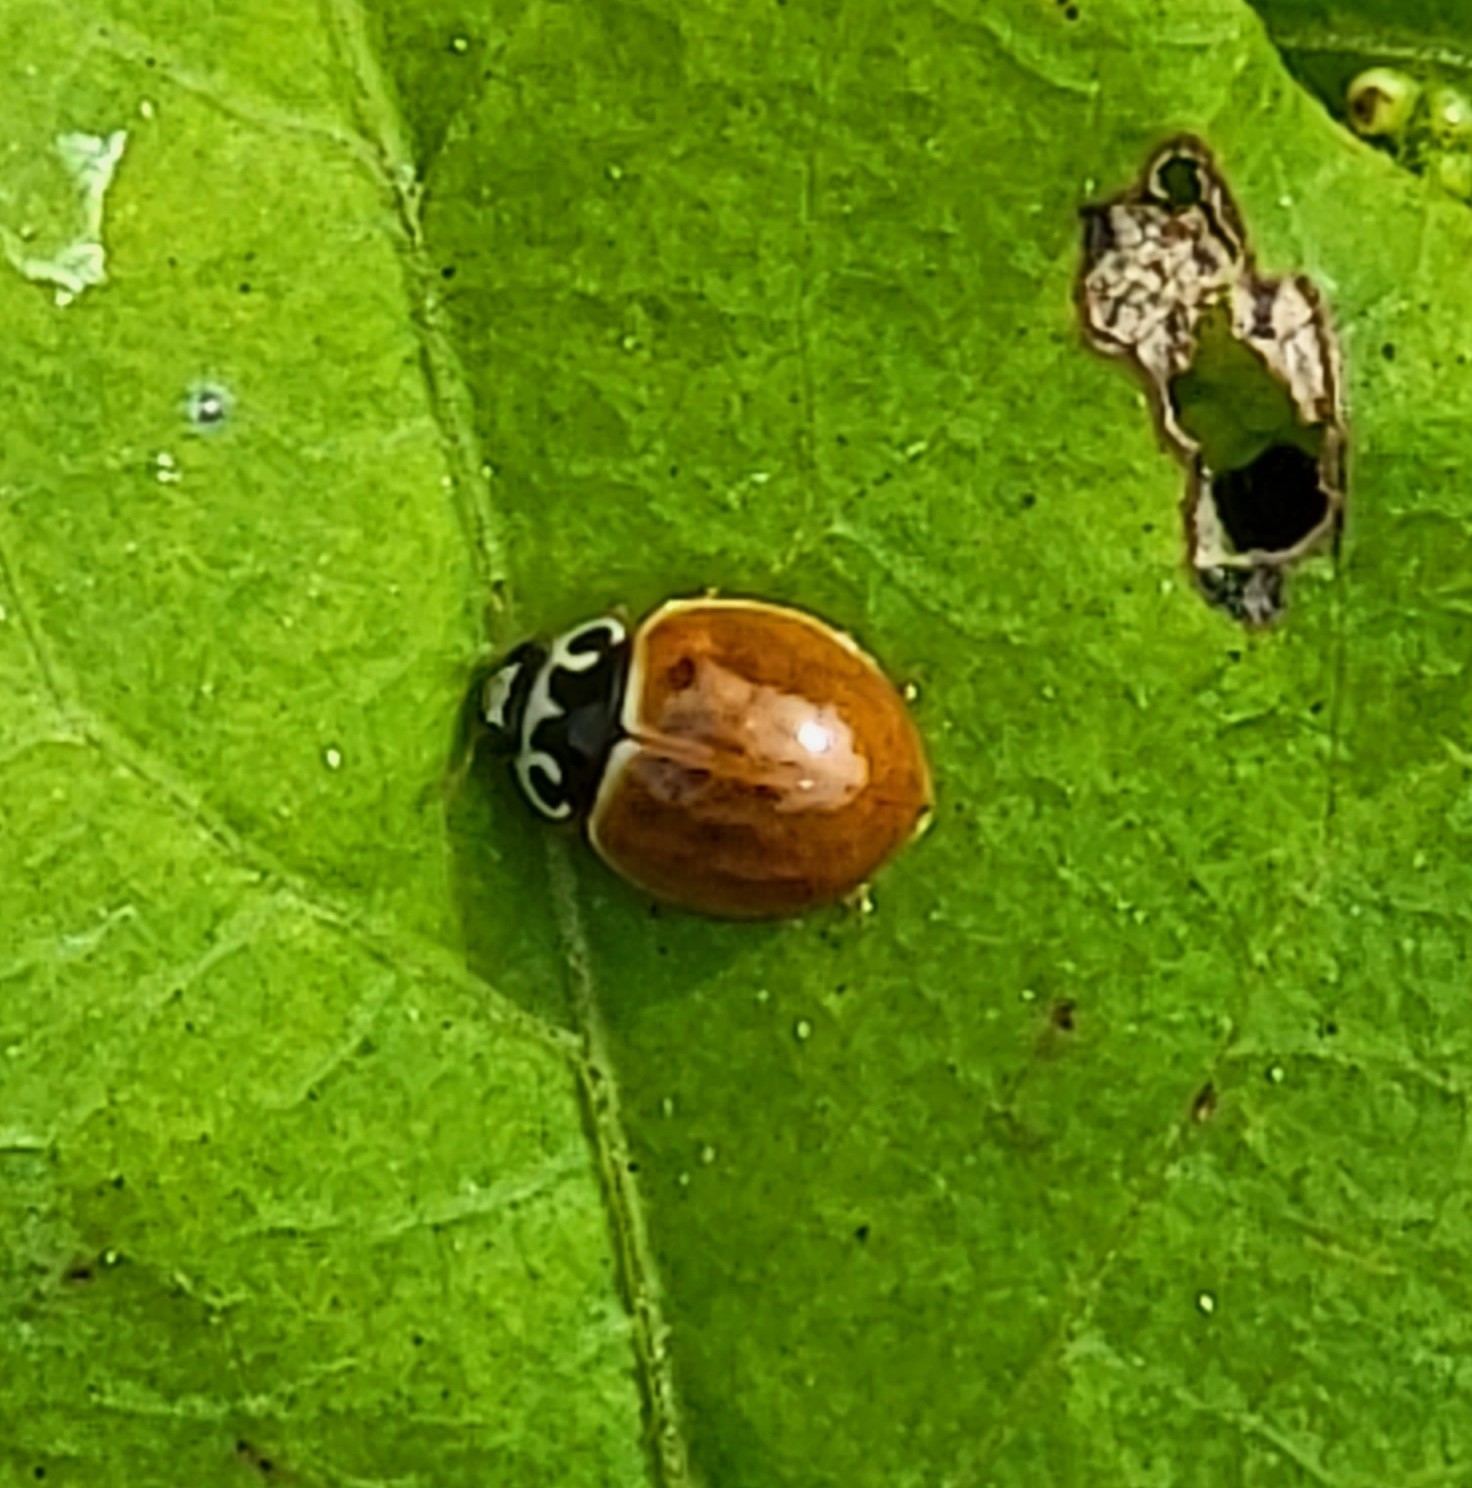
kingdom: Animalia
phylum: Arthropoda
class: Insecta
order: Coleoptera
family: Coccinellidae
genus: Cycloneda
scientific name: Cycloneda munda
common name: Polished lady beetle
